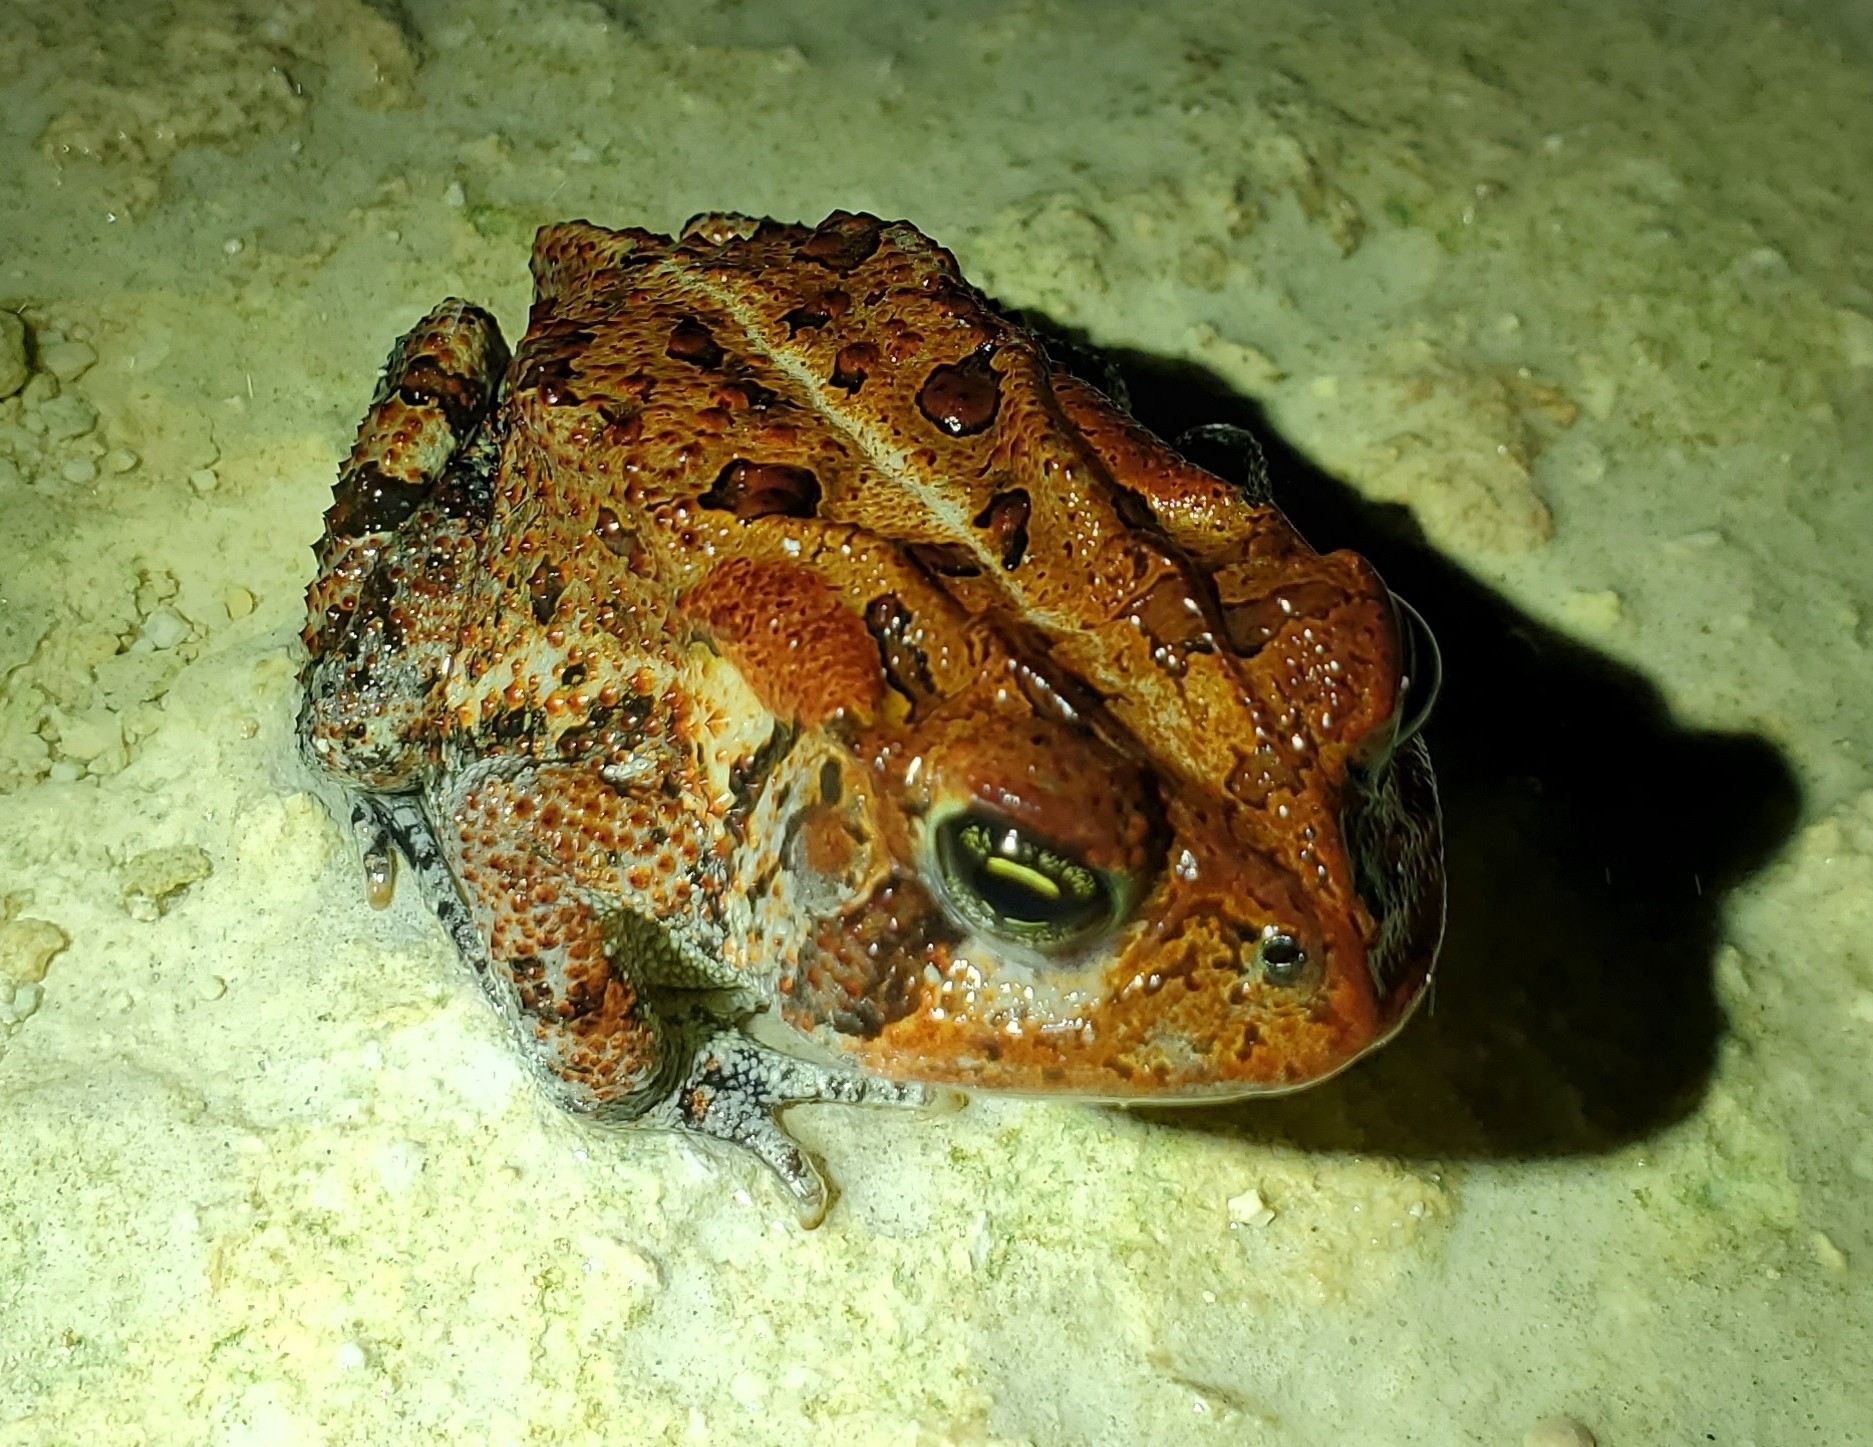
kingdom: Animalia
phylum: Chordata
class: Amphibia
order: Anura
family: Bufonidae
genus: Anaxyrus
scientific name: Anaxyrus terrestris
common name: Southern toad
